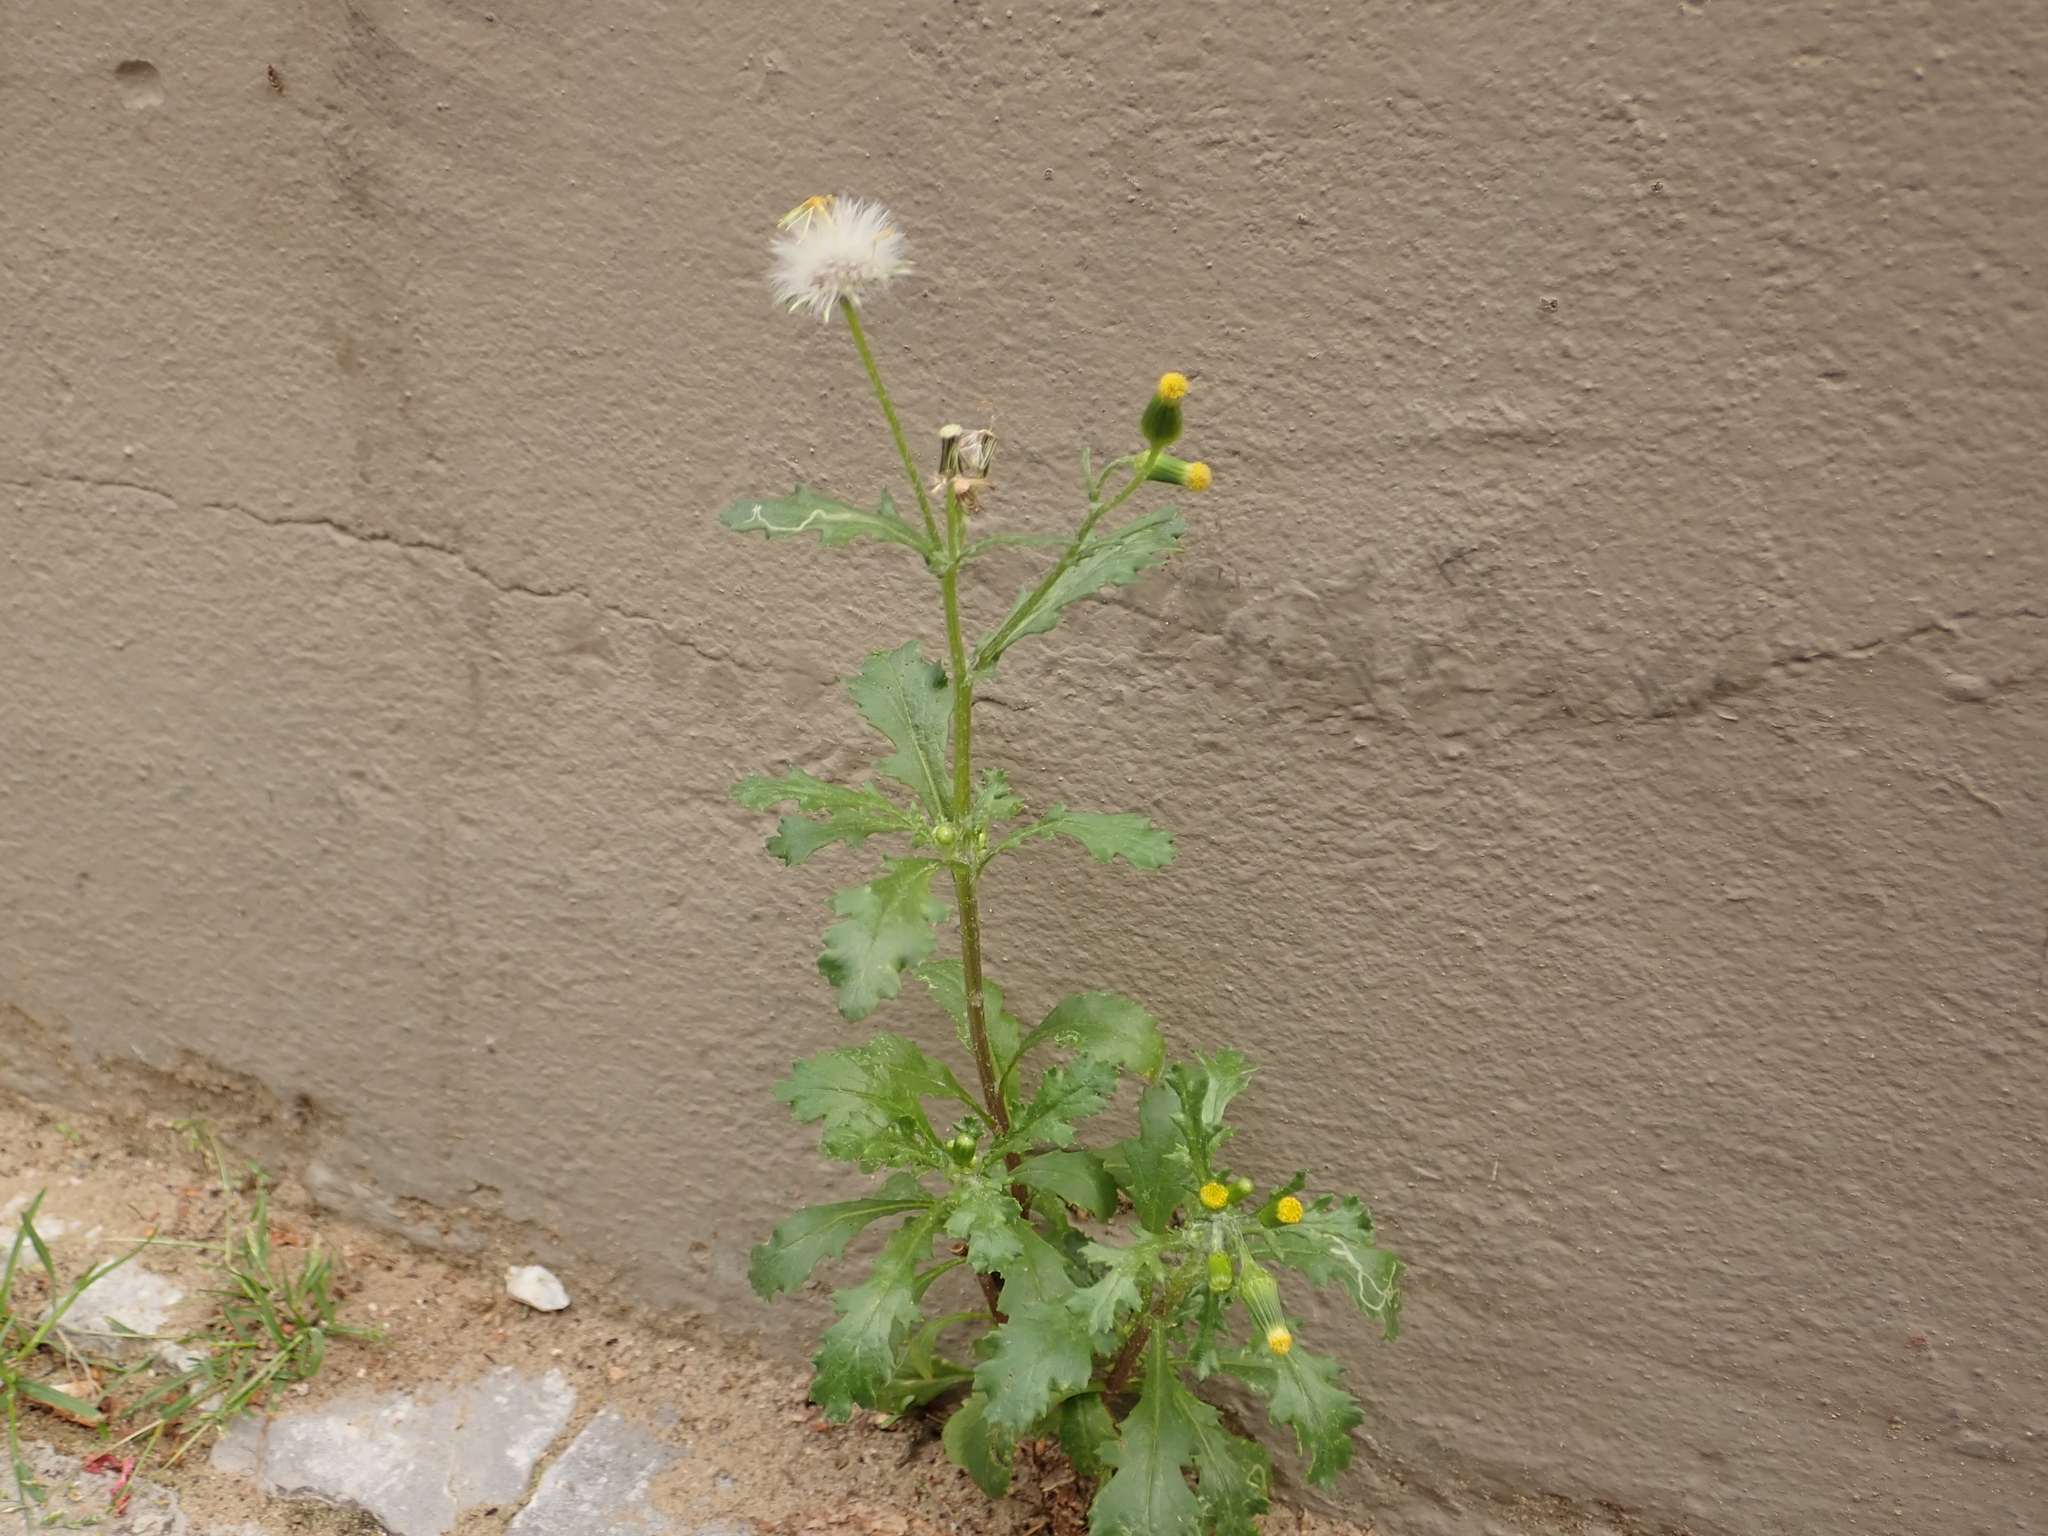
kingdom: Plantae
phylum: Tracheophyta
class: Magnoliopsida
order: Asterales
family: Asteraceae
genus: Senecio
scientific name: Senecio vulgaris
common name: Old-man-in-the-spring
